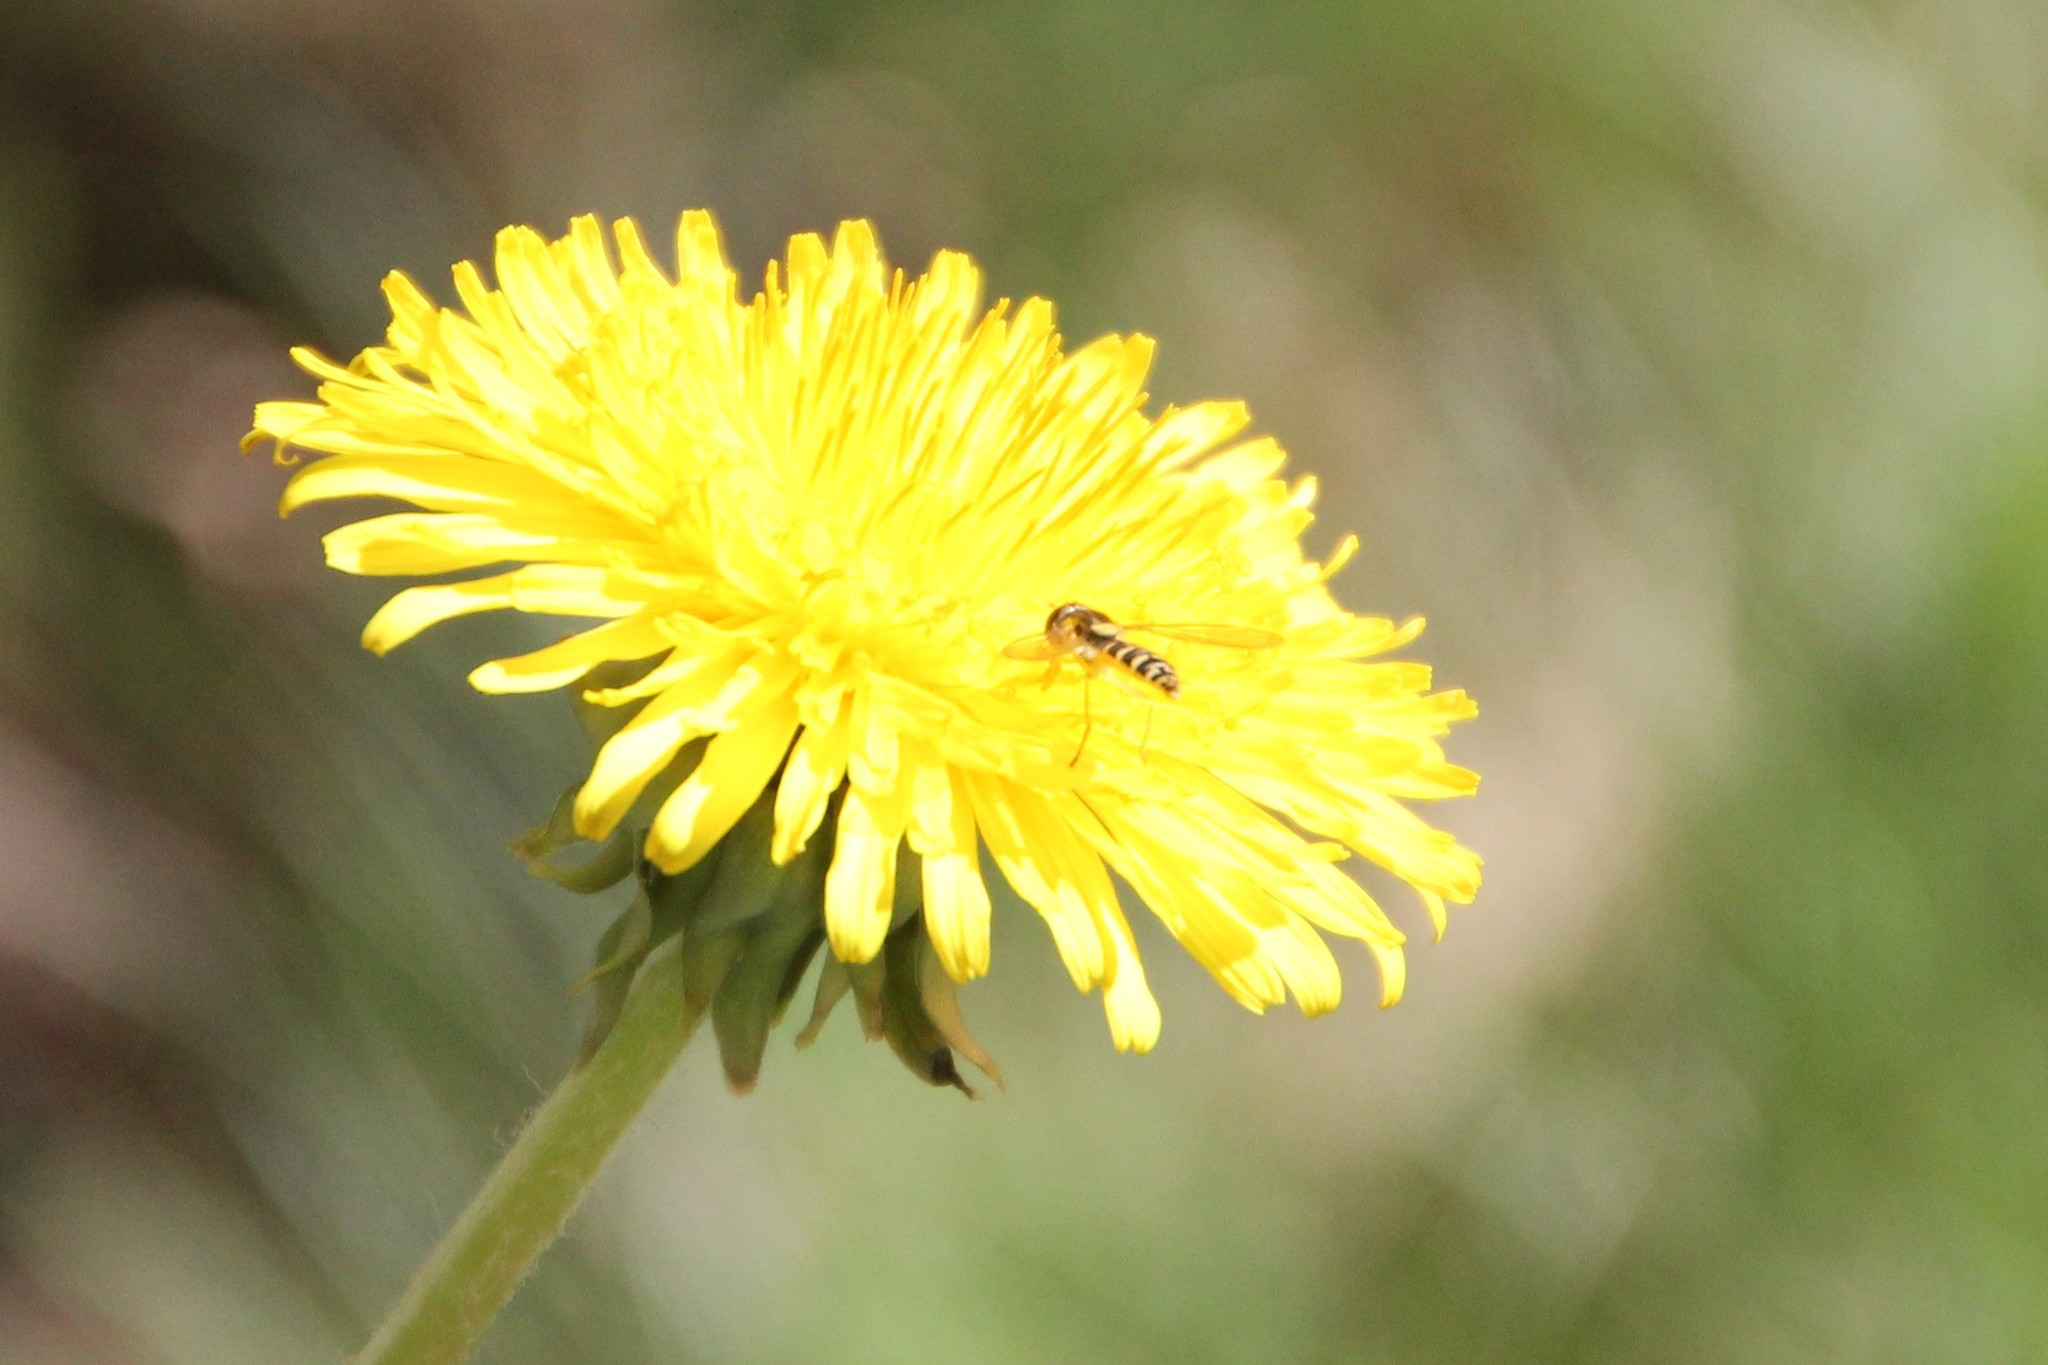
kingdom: Animalia
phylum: Arthropoda
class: Insecta
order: Diptera
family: Syrphidae
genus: Sphaerophoria
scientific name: Sphaerophoria
